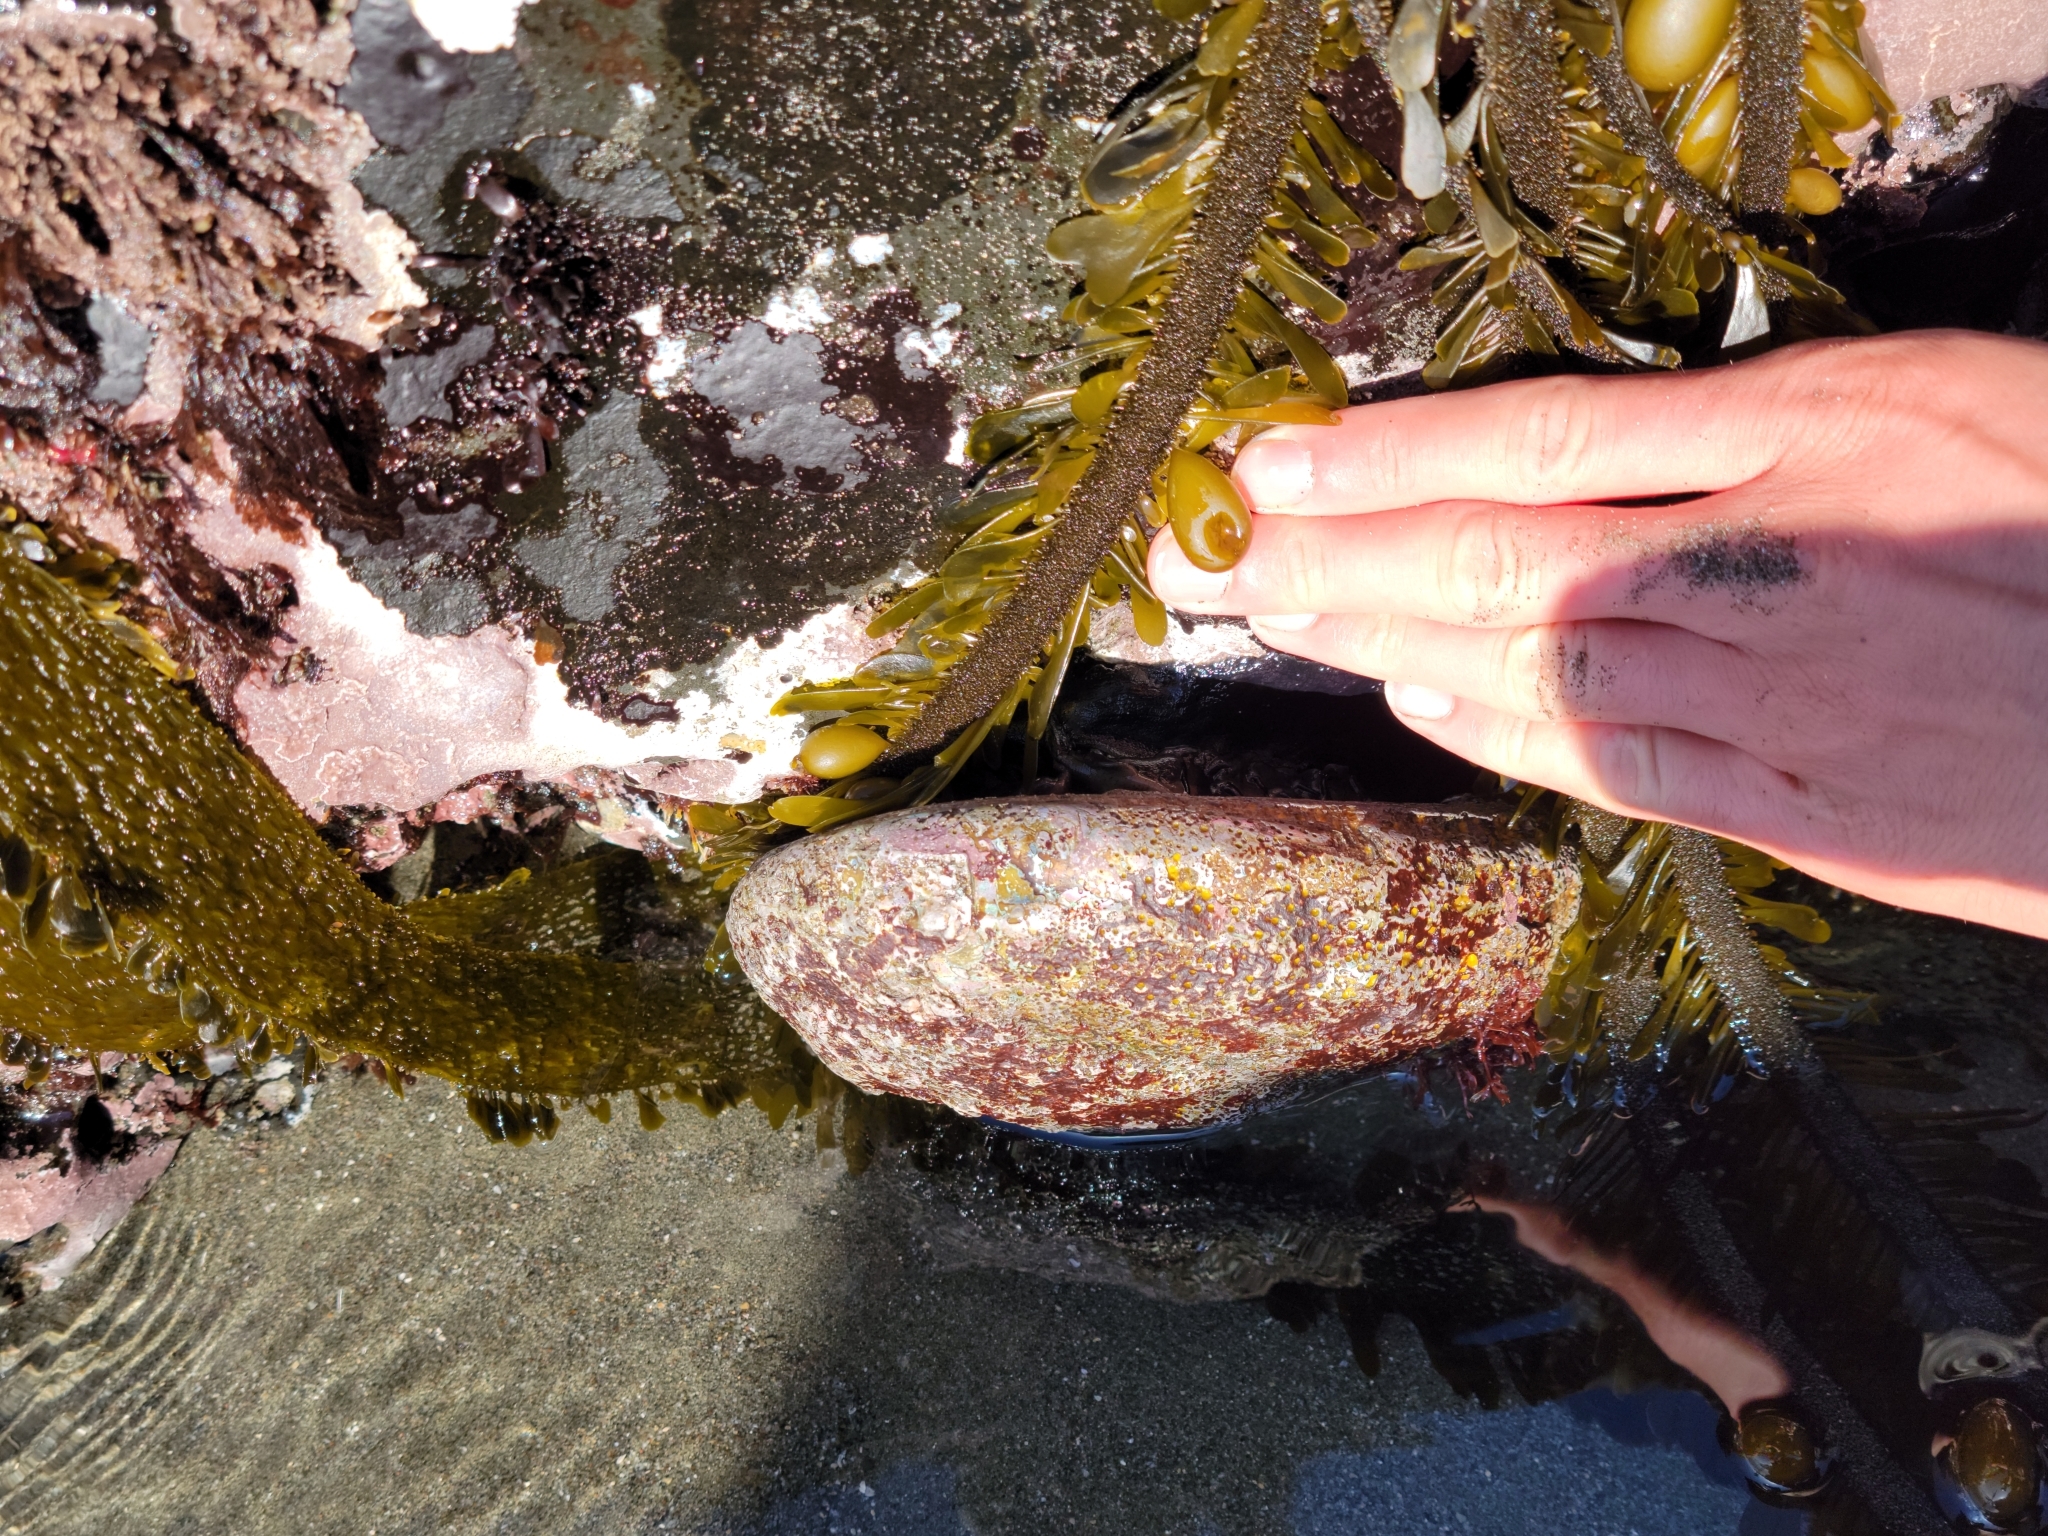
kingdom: Animalia
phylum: Mollusca
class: Gastropoda
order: Lepetellida
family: Haliotidae
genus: Haliotis
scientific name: Haliotis rufescens
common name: Red abalone
